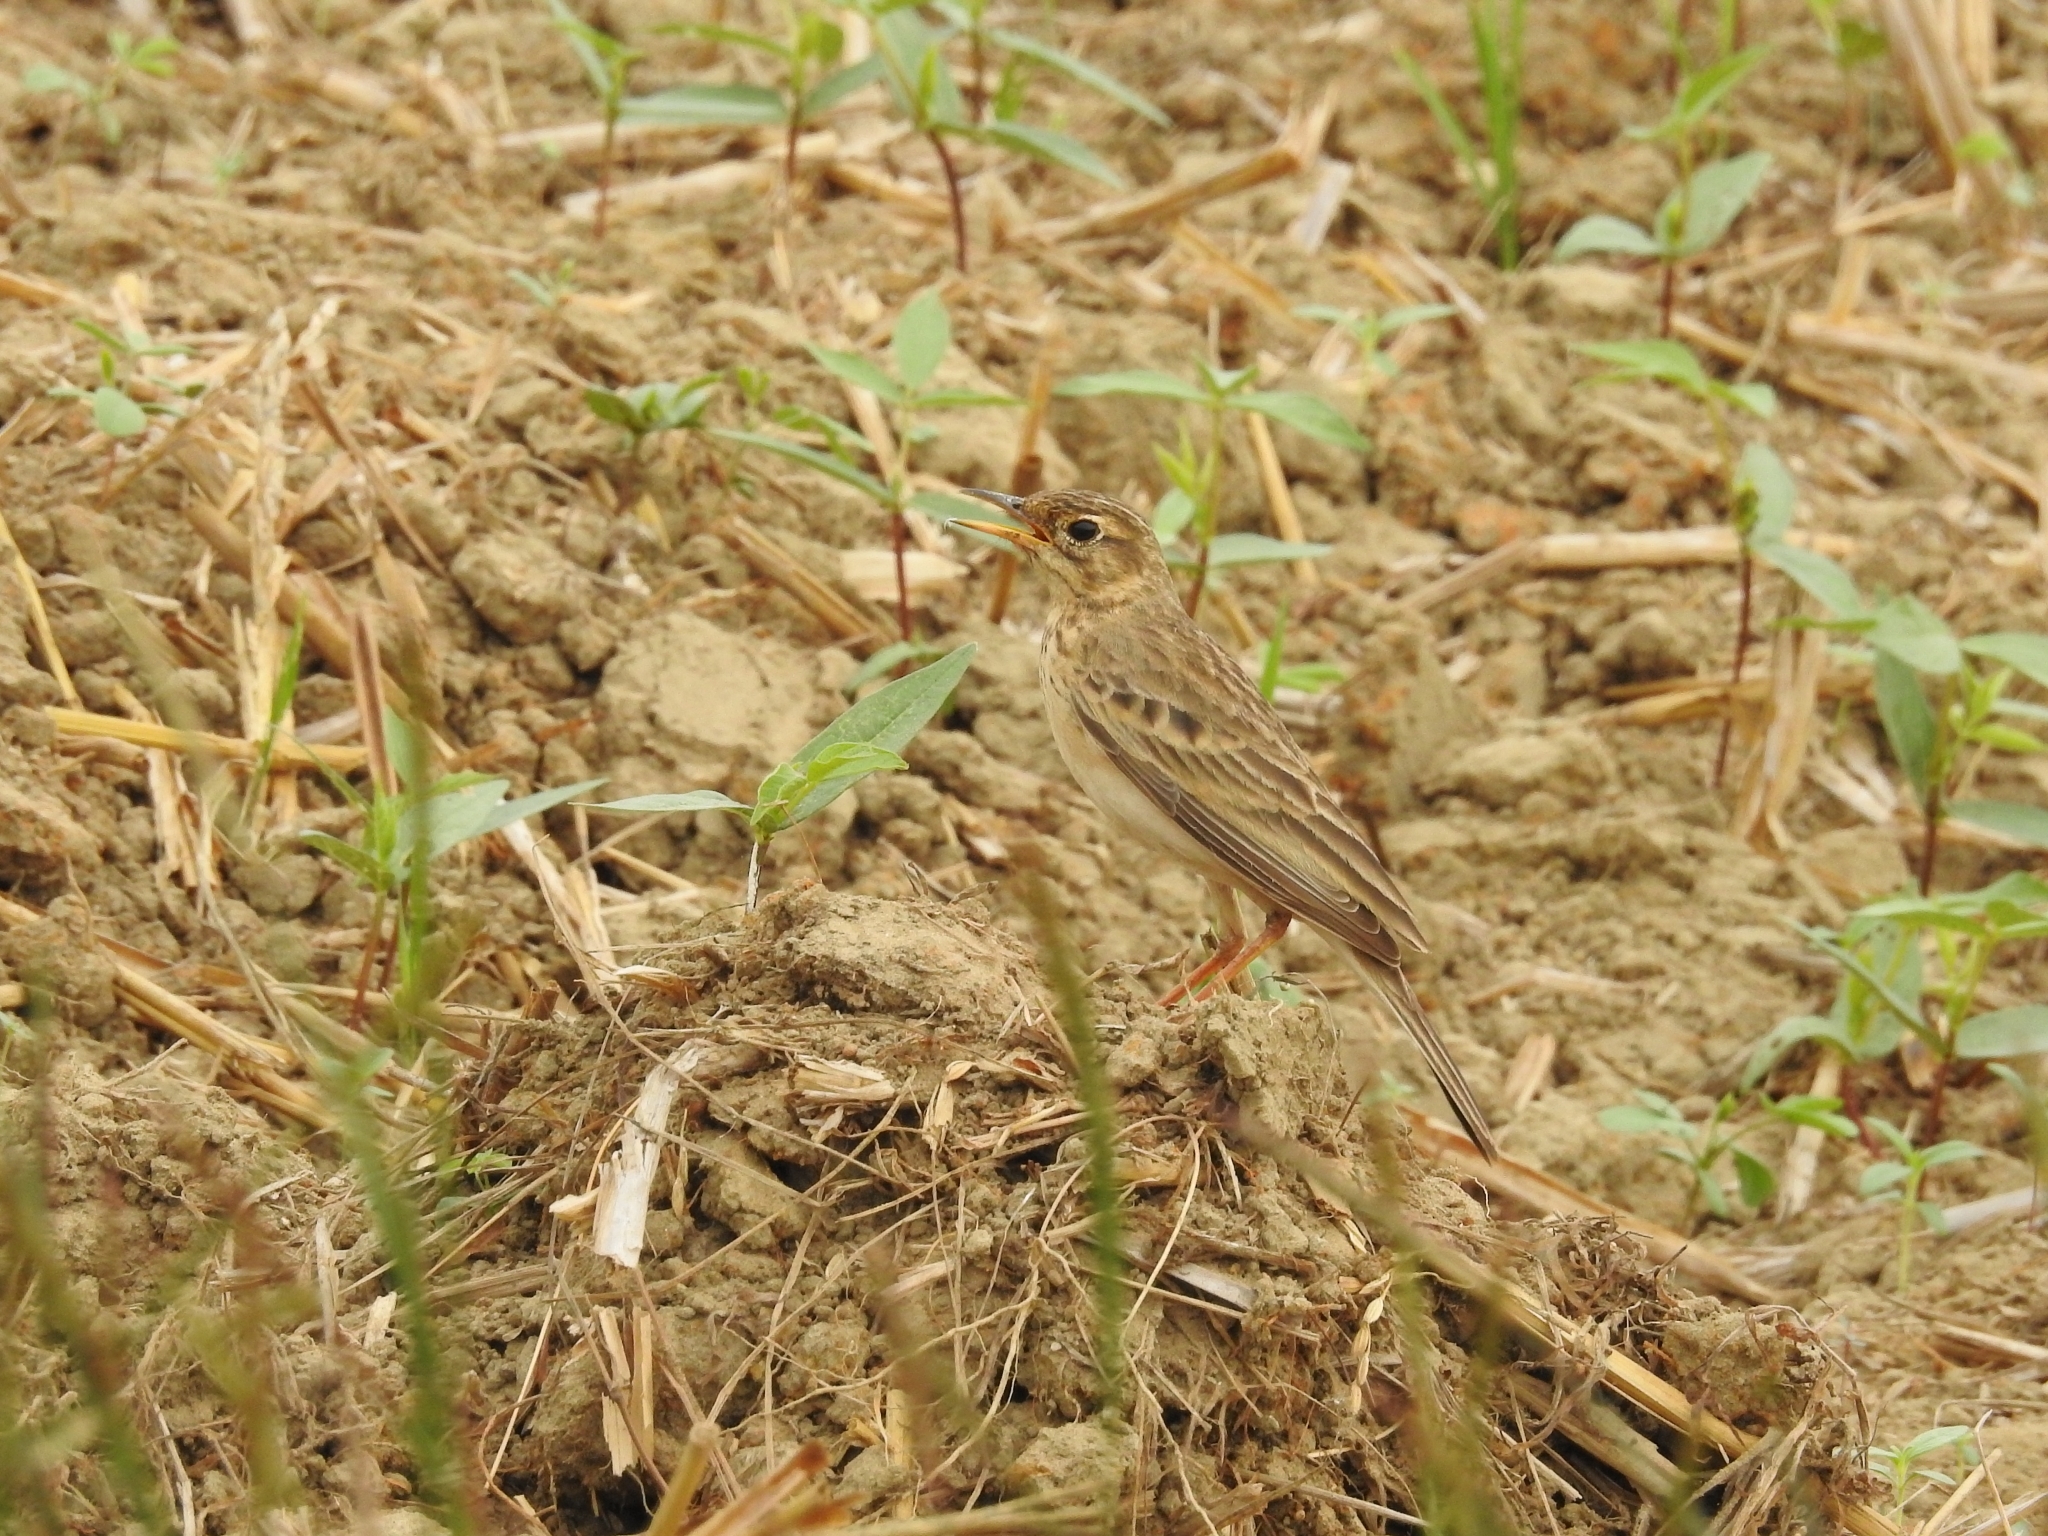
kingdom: Animalia
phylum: Chordata
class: Aves
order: Passeriformes
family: Motacillidae
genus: Anthus
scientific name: Anthus rufulus
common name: Paddyfield pipit
